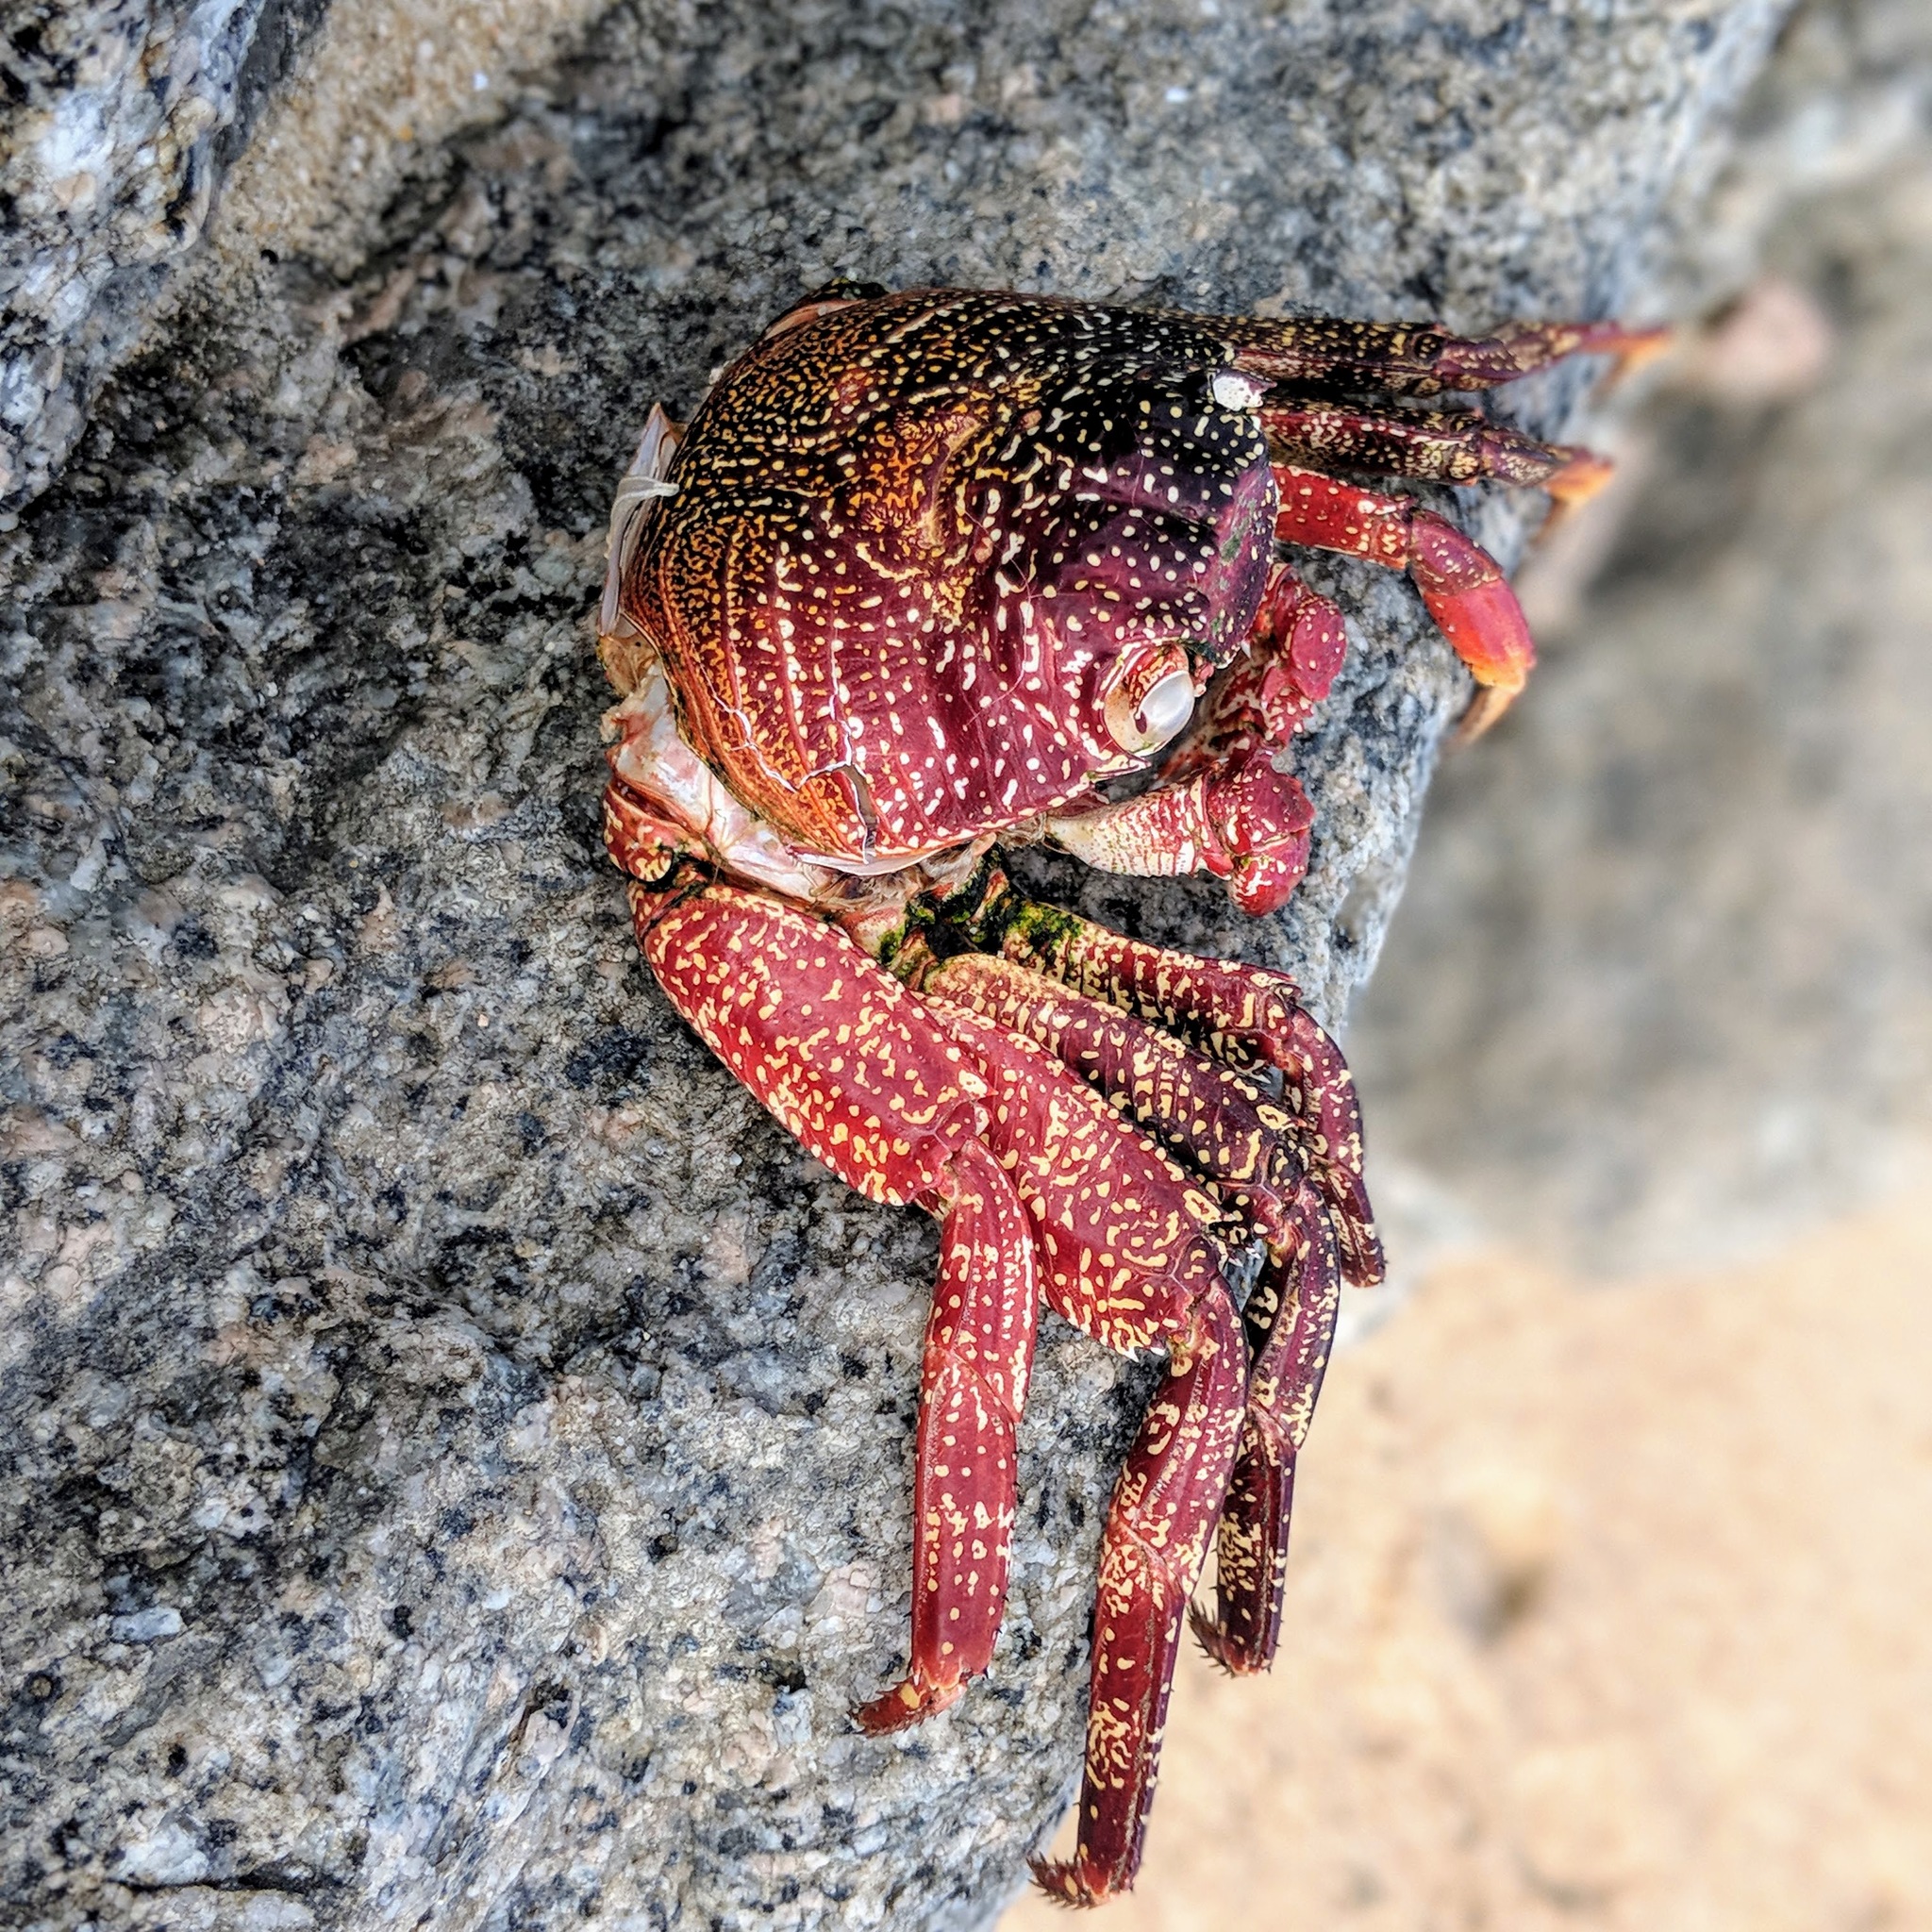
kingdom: Animalia
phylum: Arthropoda
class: Malacostraca
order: Decapoda
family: Grapsidae
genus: Goniopsis
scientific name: Goniopsis pulchra
